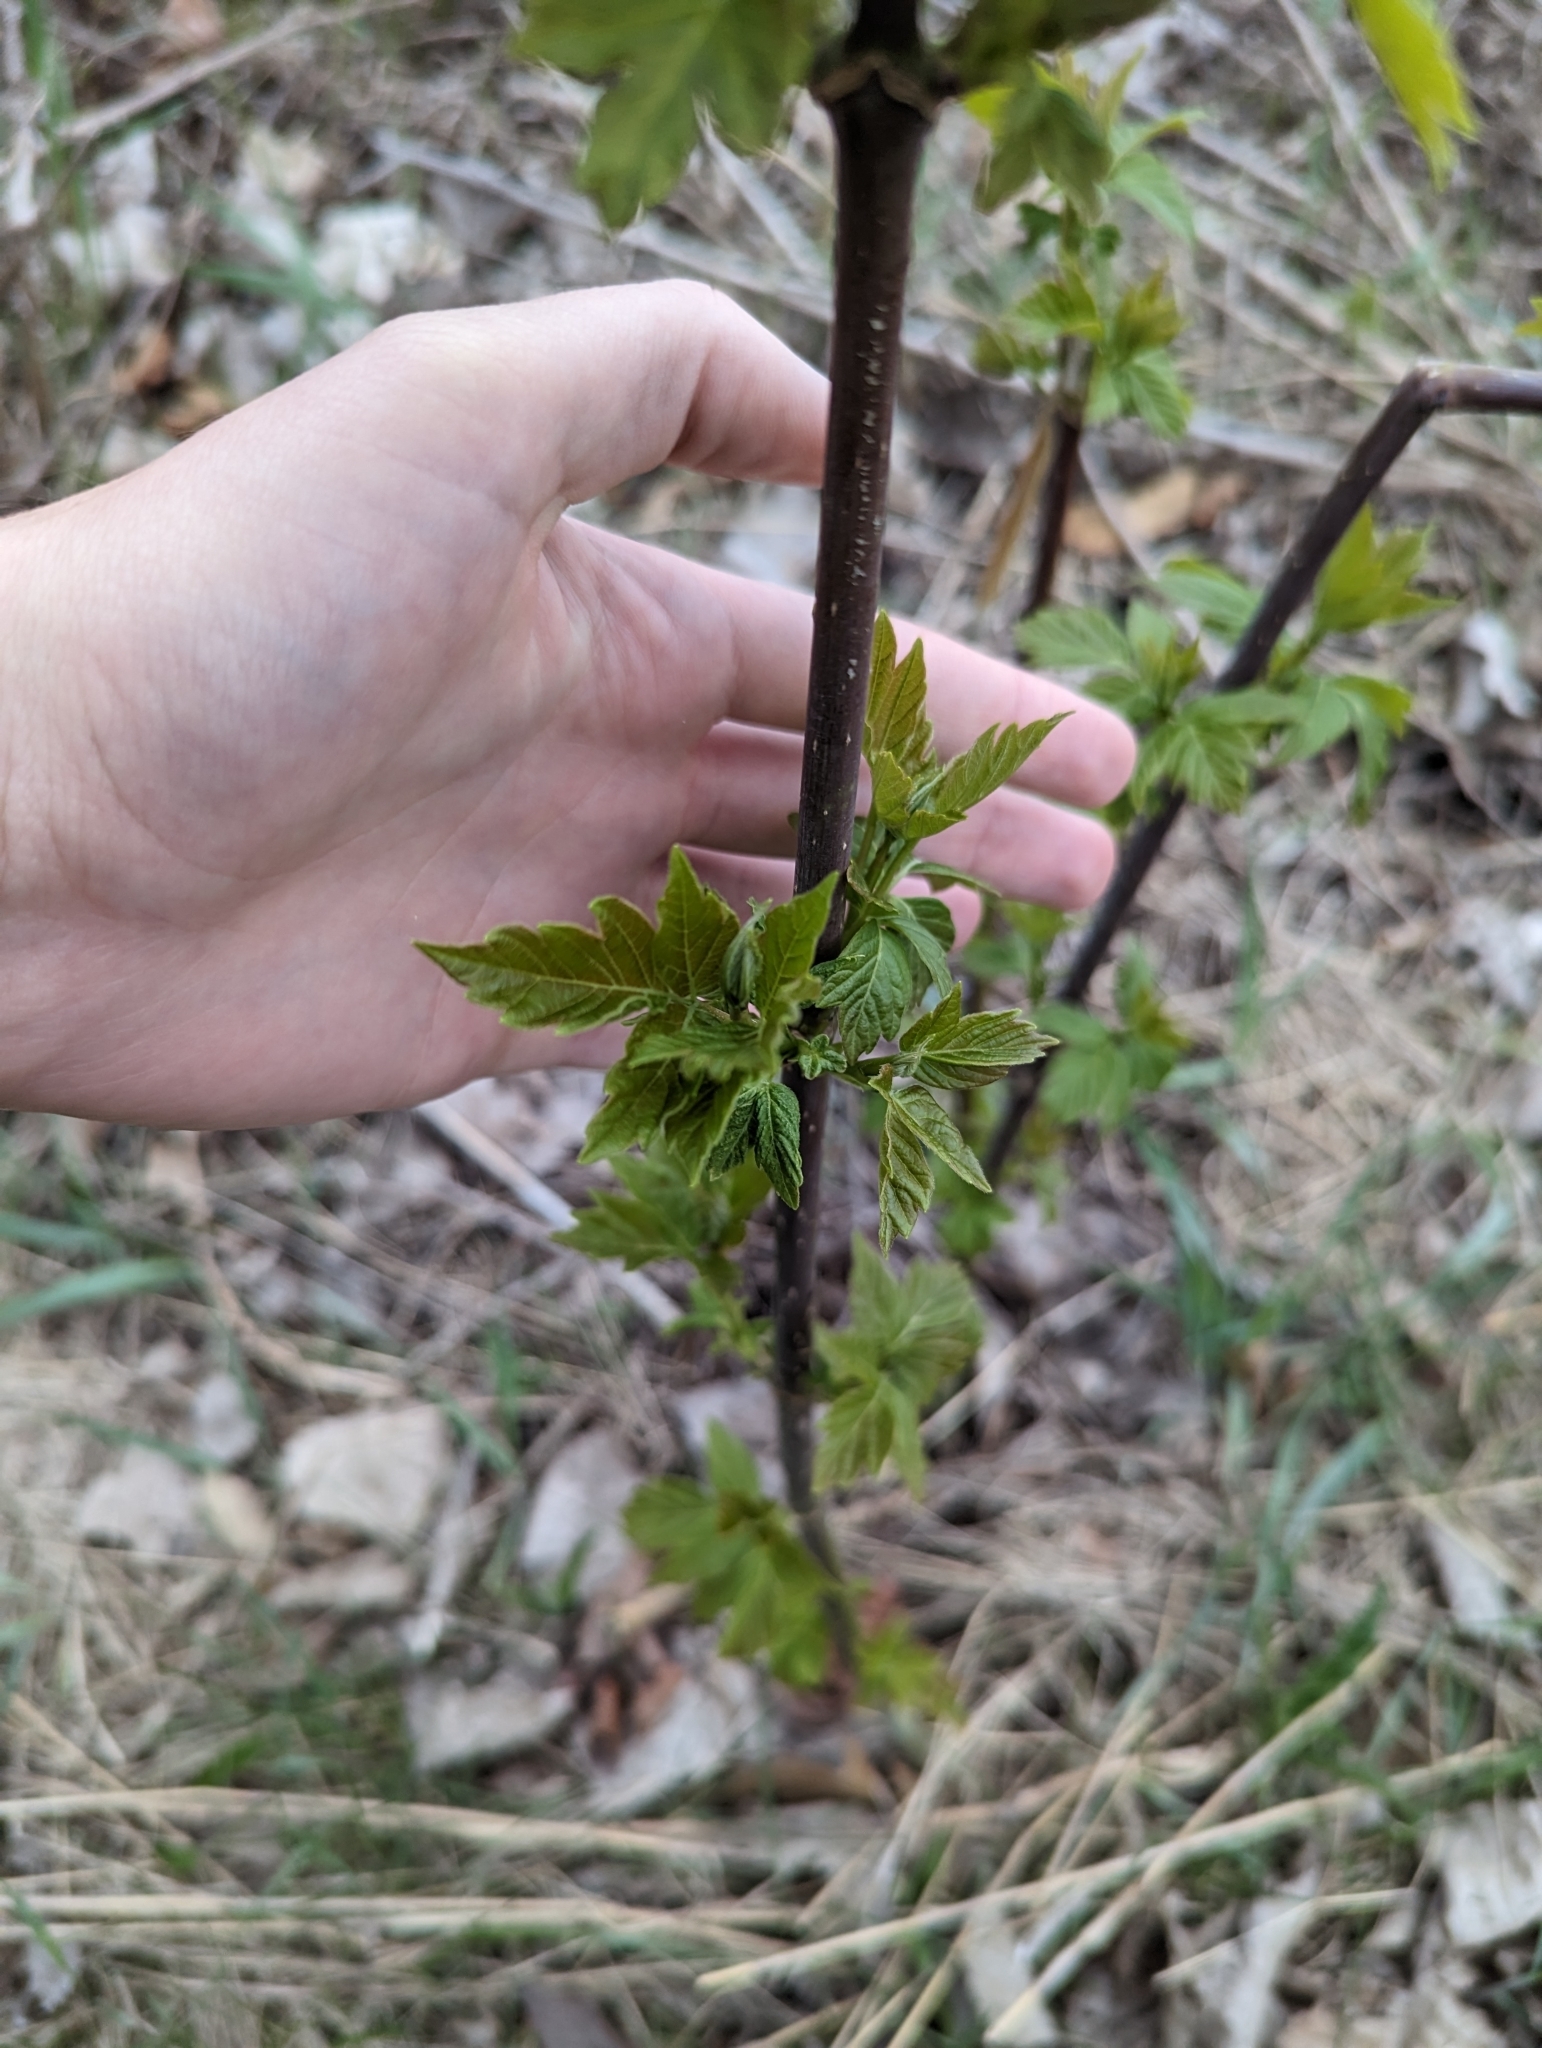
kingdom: Plantae
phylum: Tracheophyta
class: Magnoliopsida
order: Sapindales
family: Sapindaceae
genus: Acer
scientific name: Acer negundo
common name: Ashleaf maple
